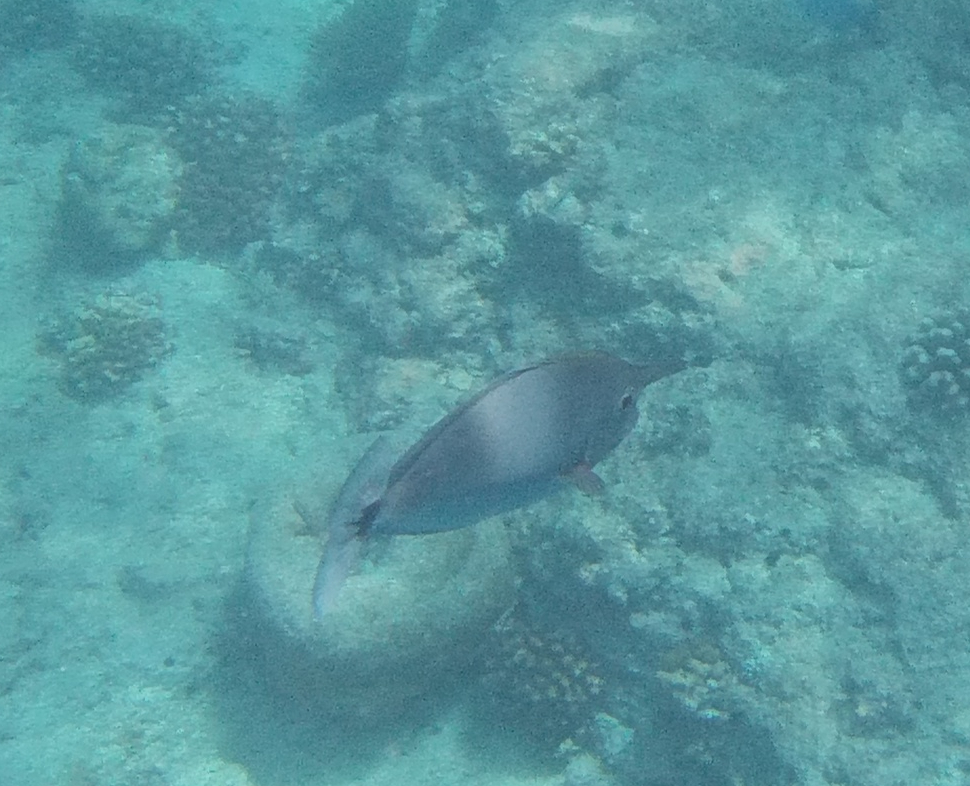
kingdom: Animalia
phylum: Chordata
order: Perciformes
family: Acanthuridae
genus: Naso
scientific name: Naso brevirostris
